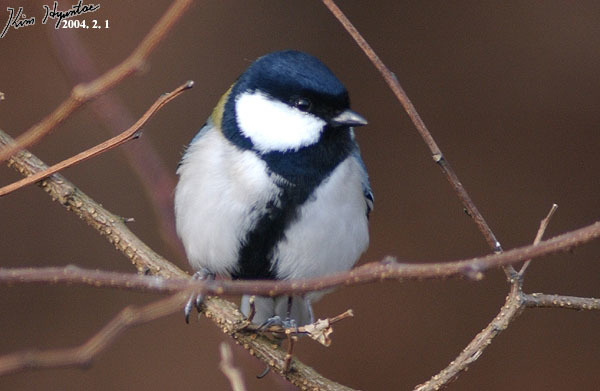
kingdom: Animalia
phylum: Chordata
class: Aves
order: Passeriformes
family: Paridae
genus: Parus
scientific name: Parus minor
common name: Japanese tit
